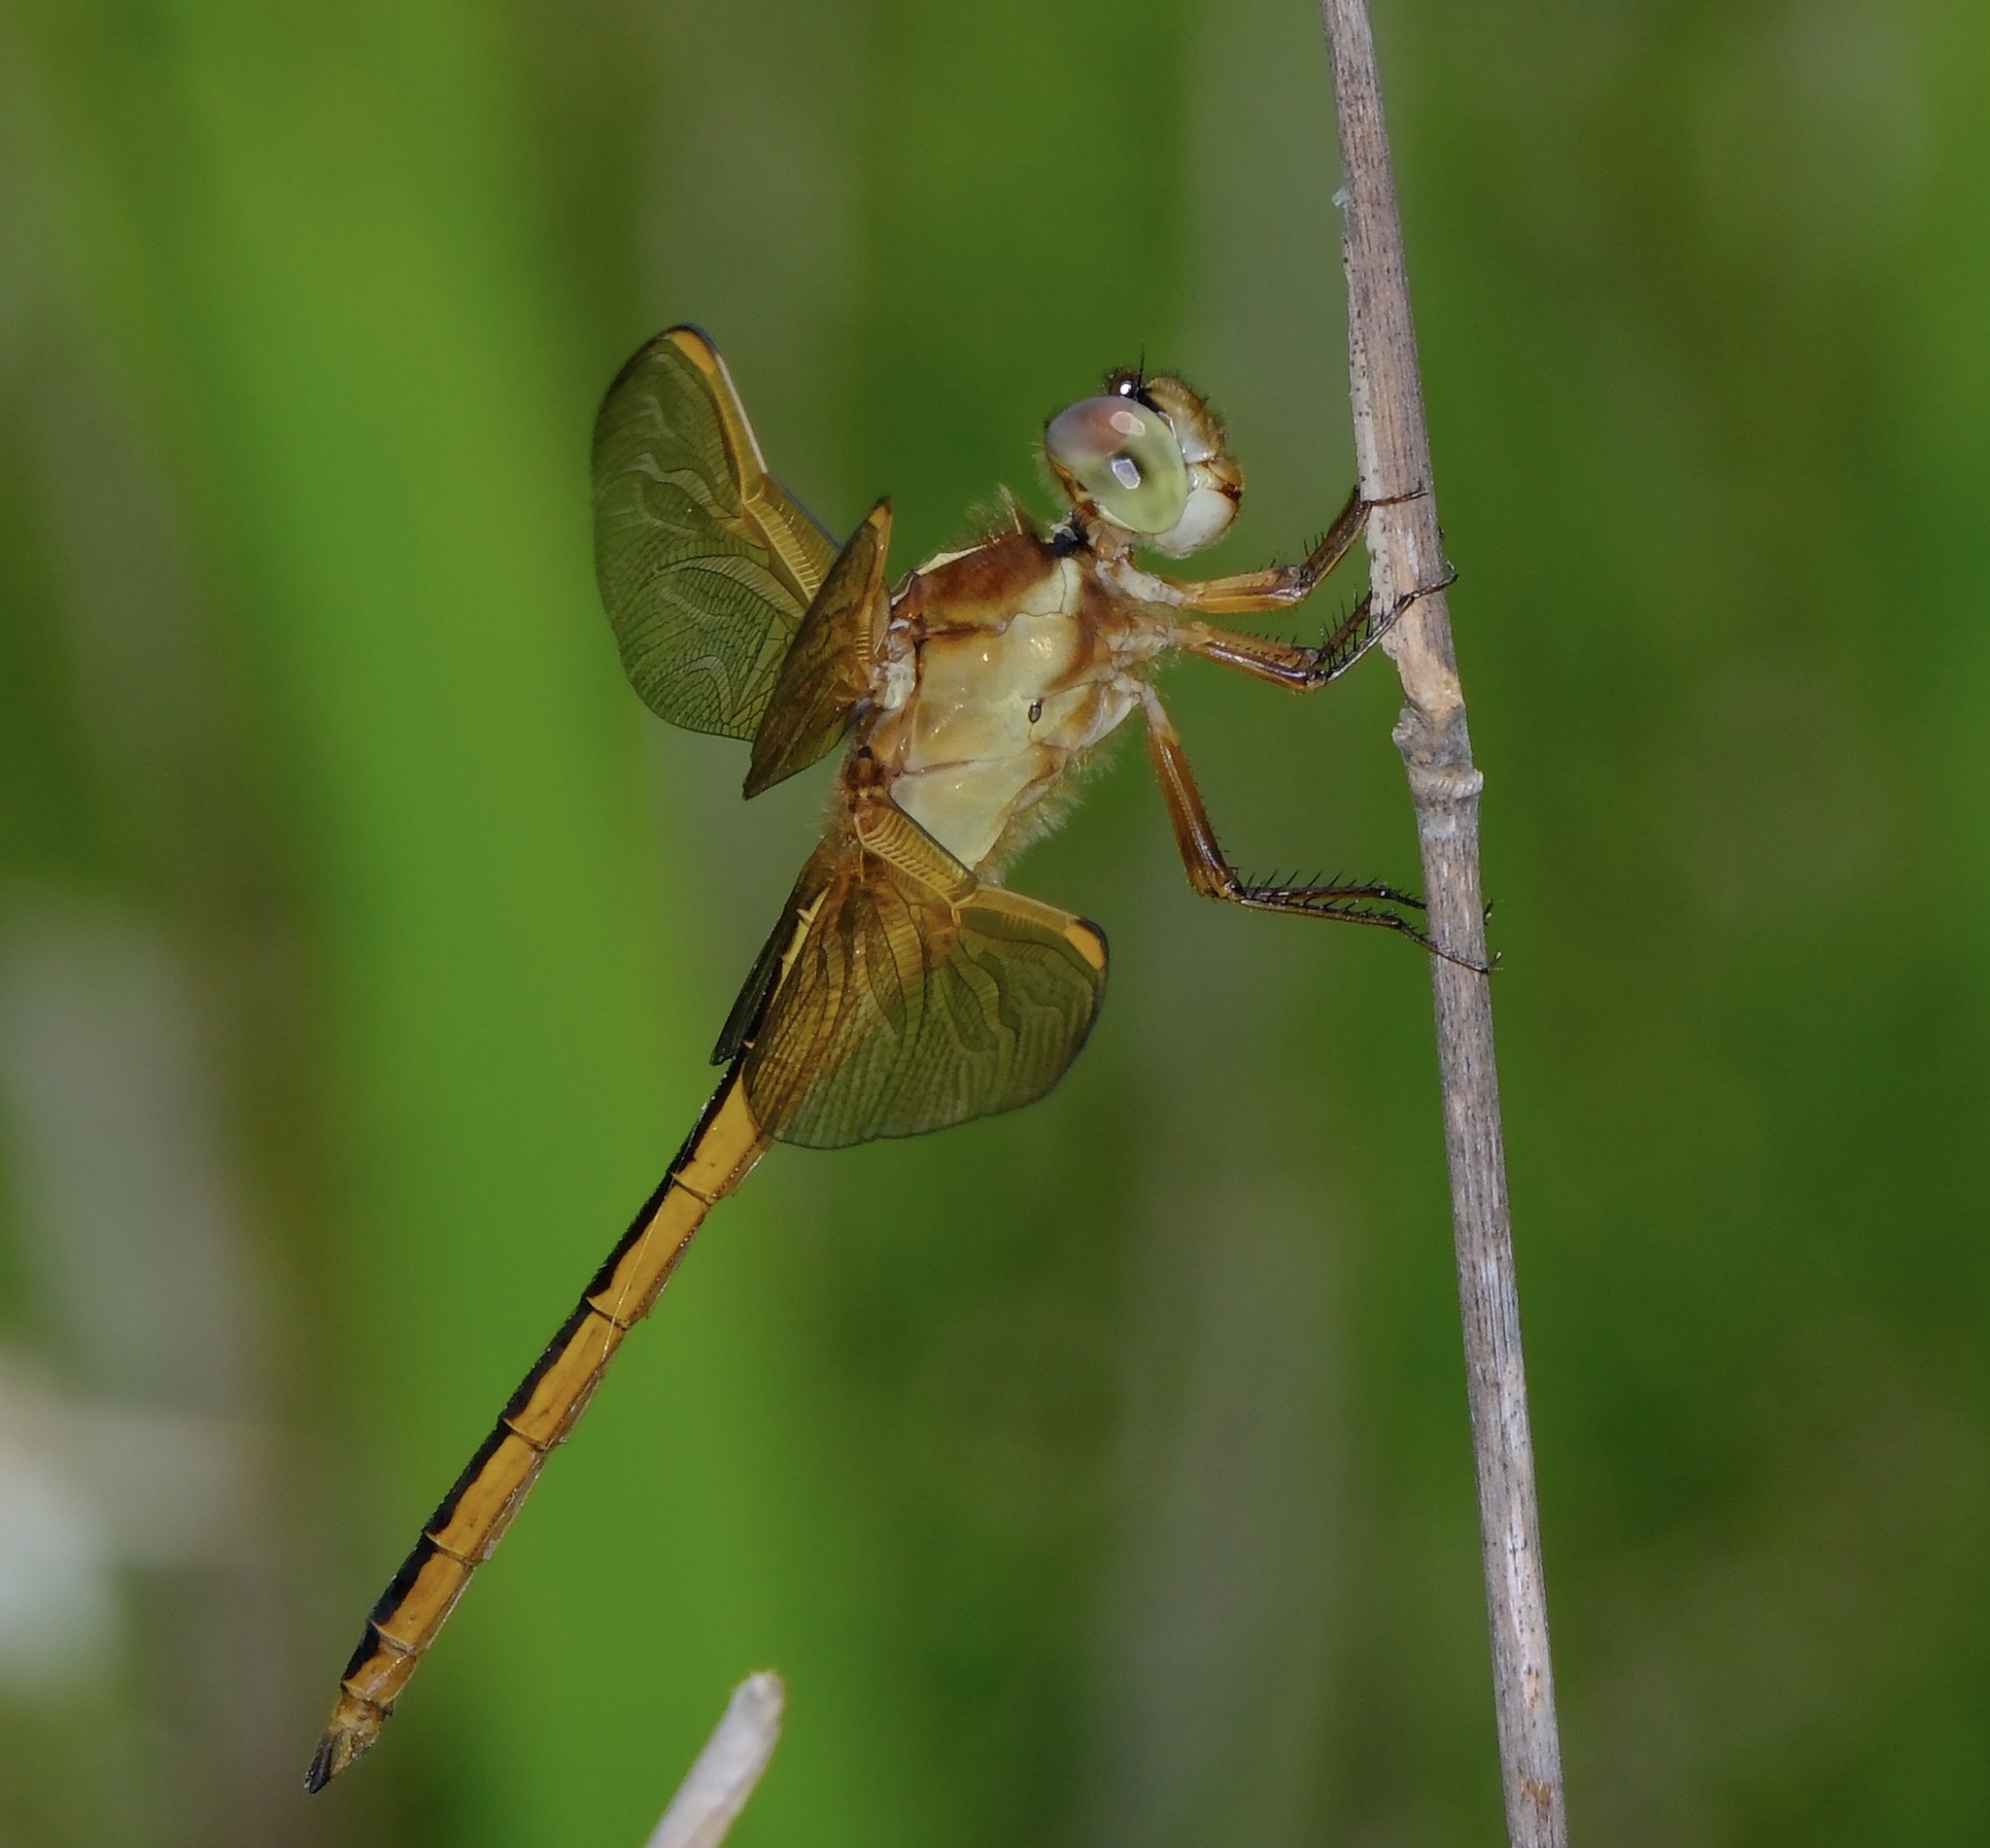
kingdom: Animalia
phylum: Arthropoda
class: Insecta
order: Odonata
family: Libellulidae
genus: Libellula
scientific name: Libellula needhami
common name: Needham's skimmer
